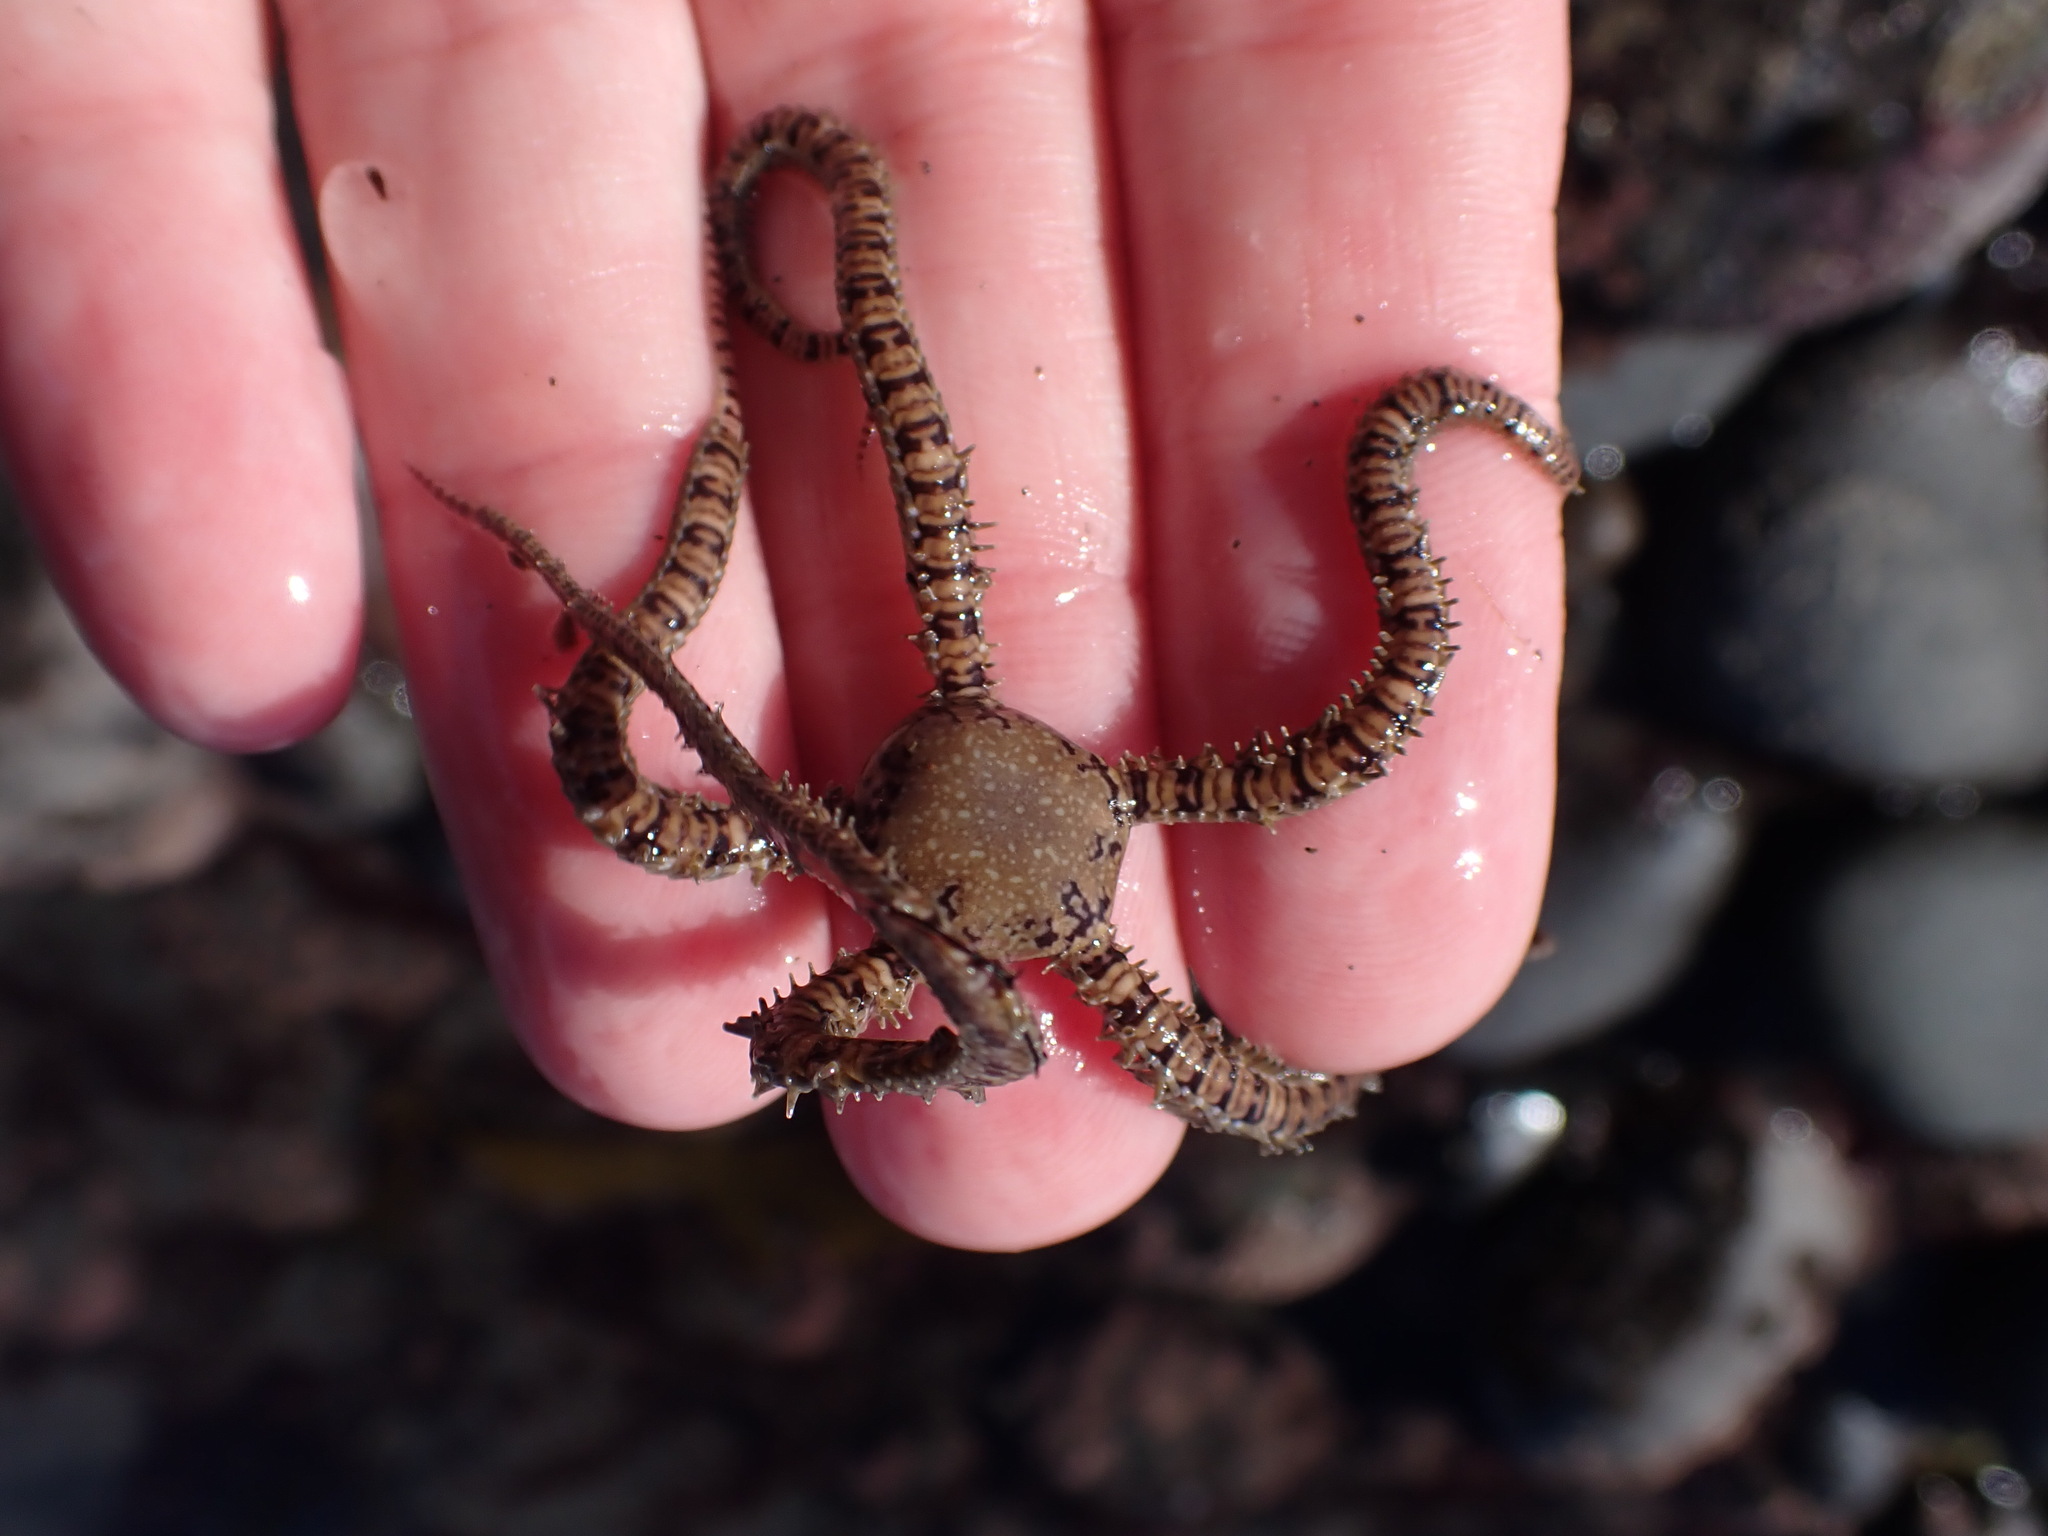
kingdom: Animalia
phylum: Echinodermata
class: Ophiuroidea
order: Amphilepidida
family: Ophionereididae
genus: Ophionereis
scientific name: Ophionereis fasciata
